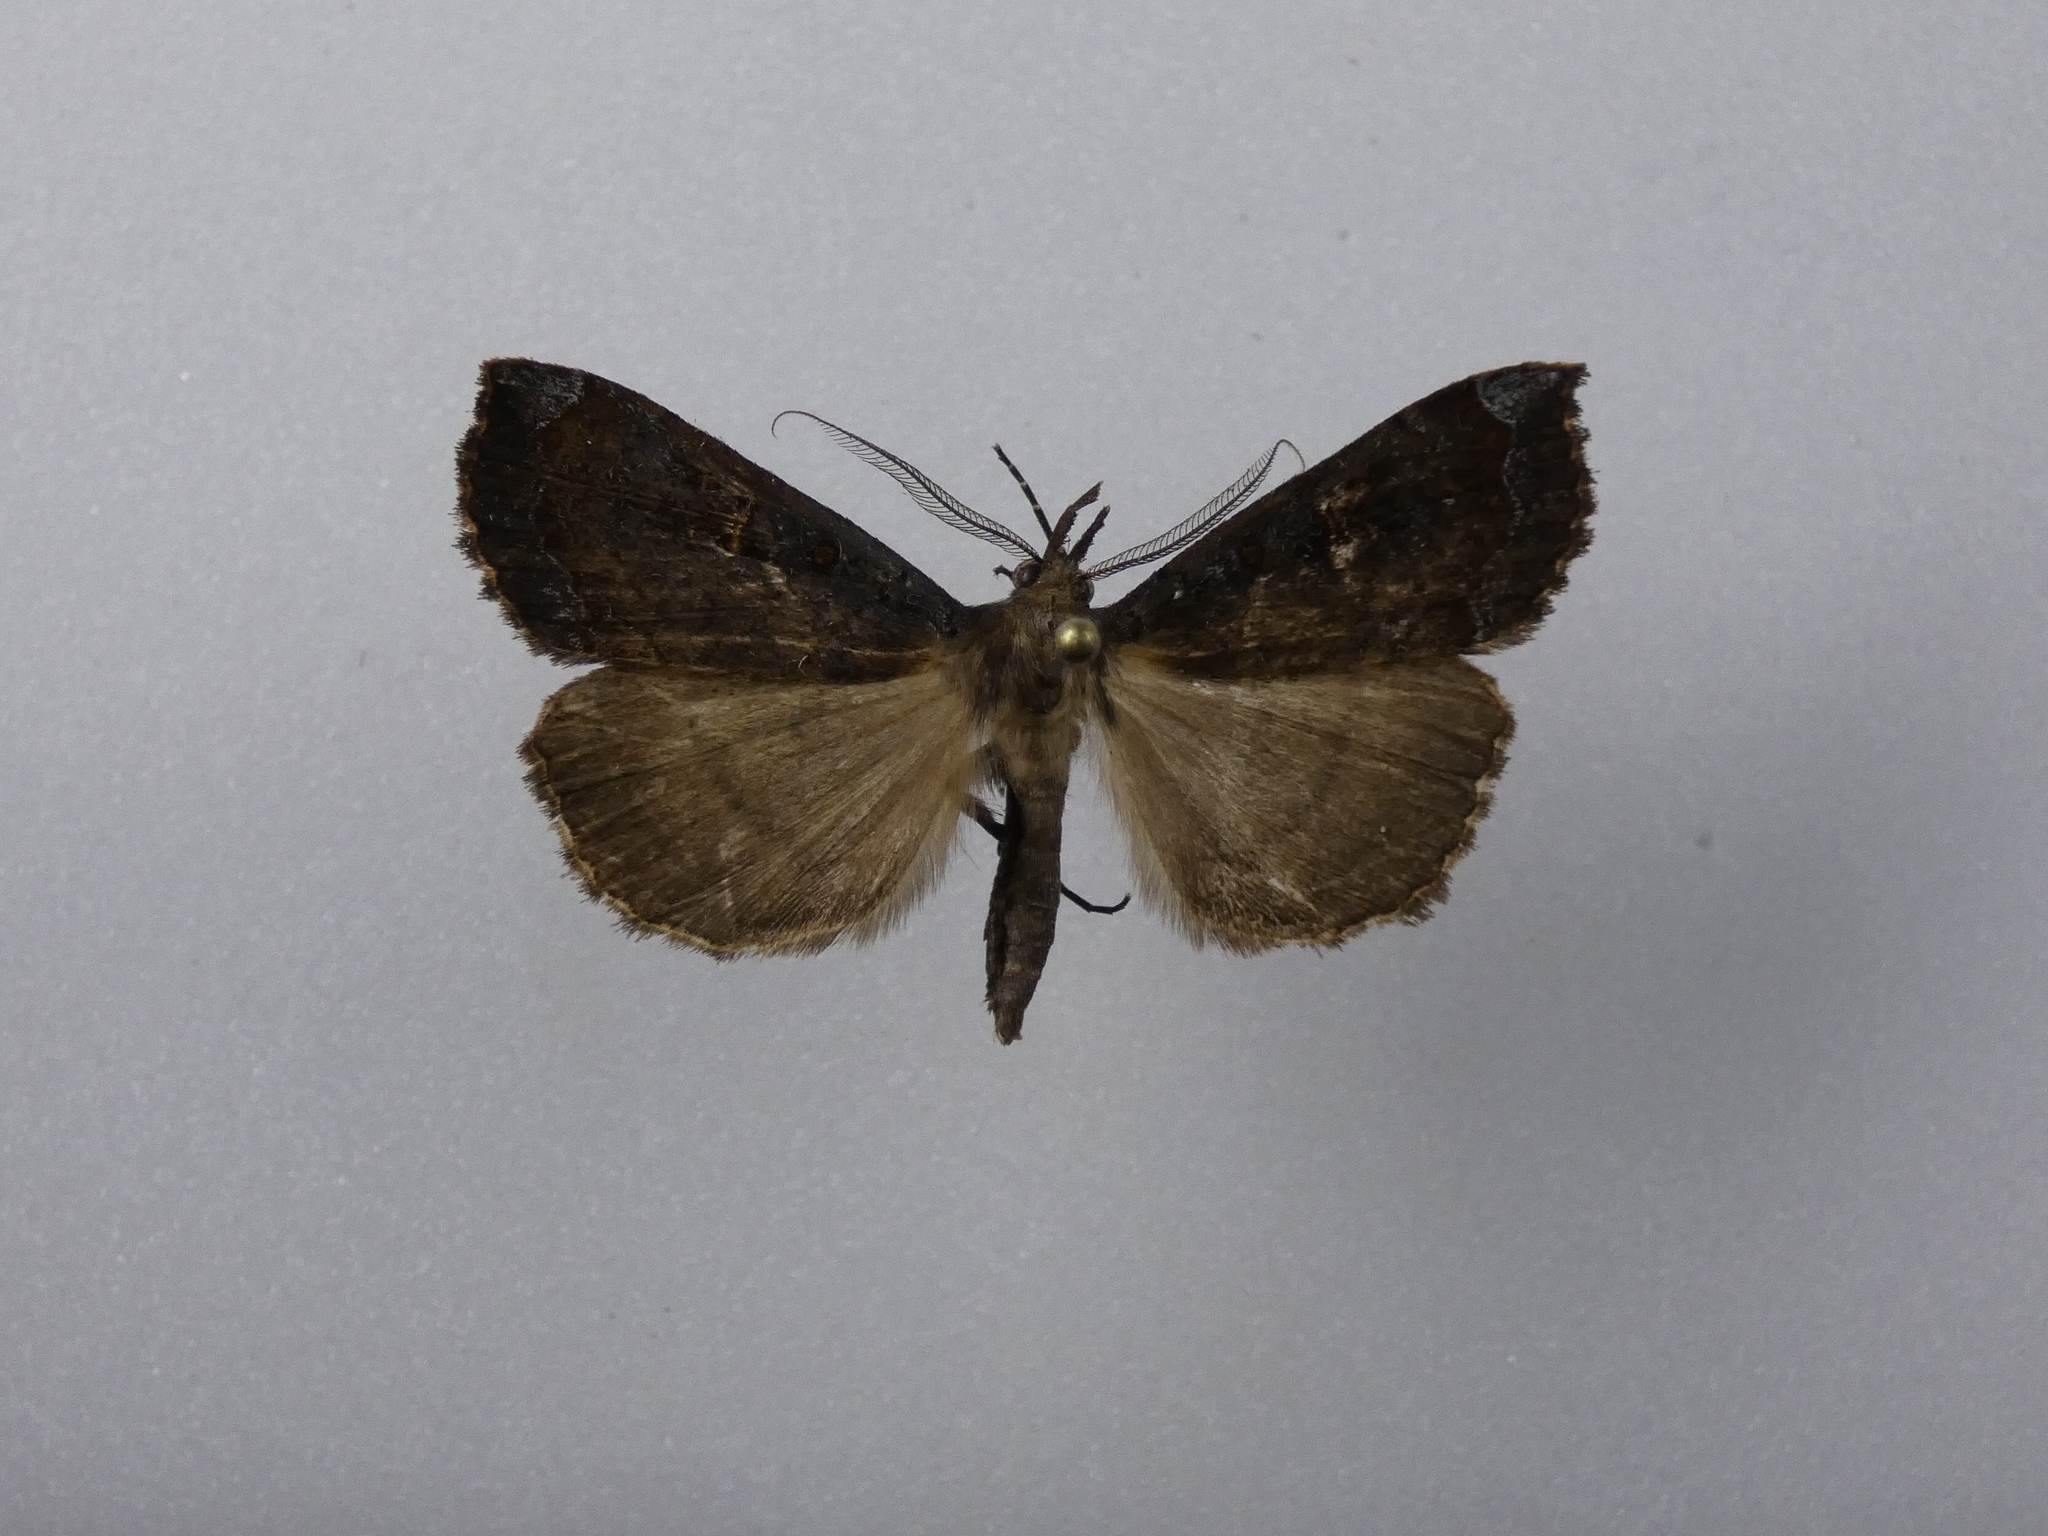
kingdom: Animalia
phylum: Arthropoda
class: Insecta
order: Lepidoptera
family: Erebidae
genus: Rhapsa
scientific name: Rhapsa scotosialis
